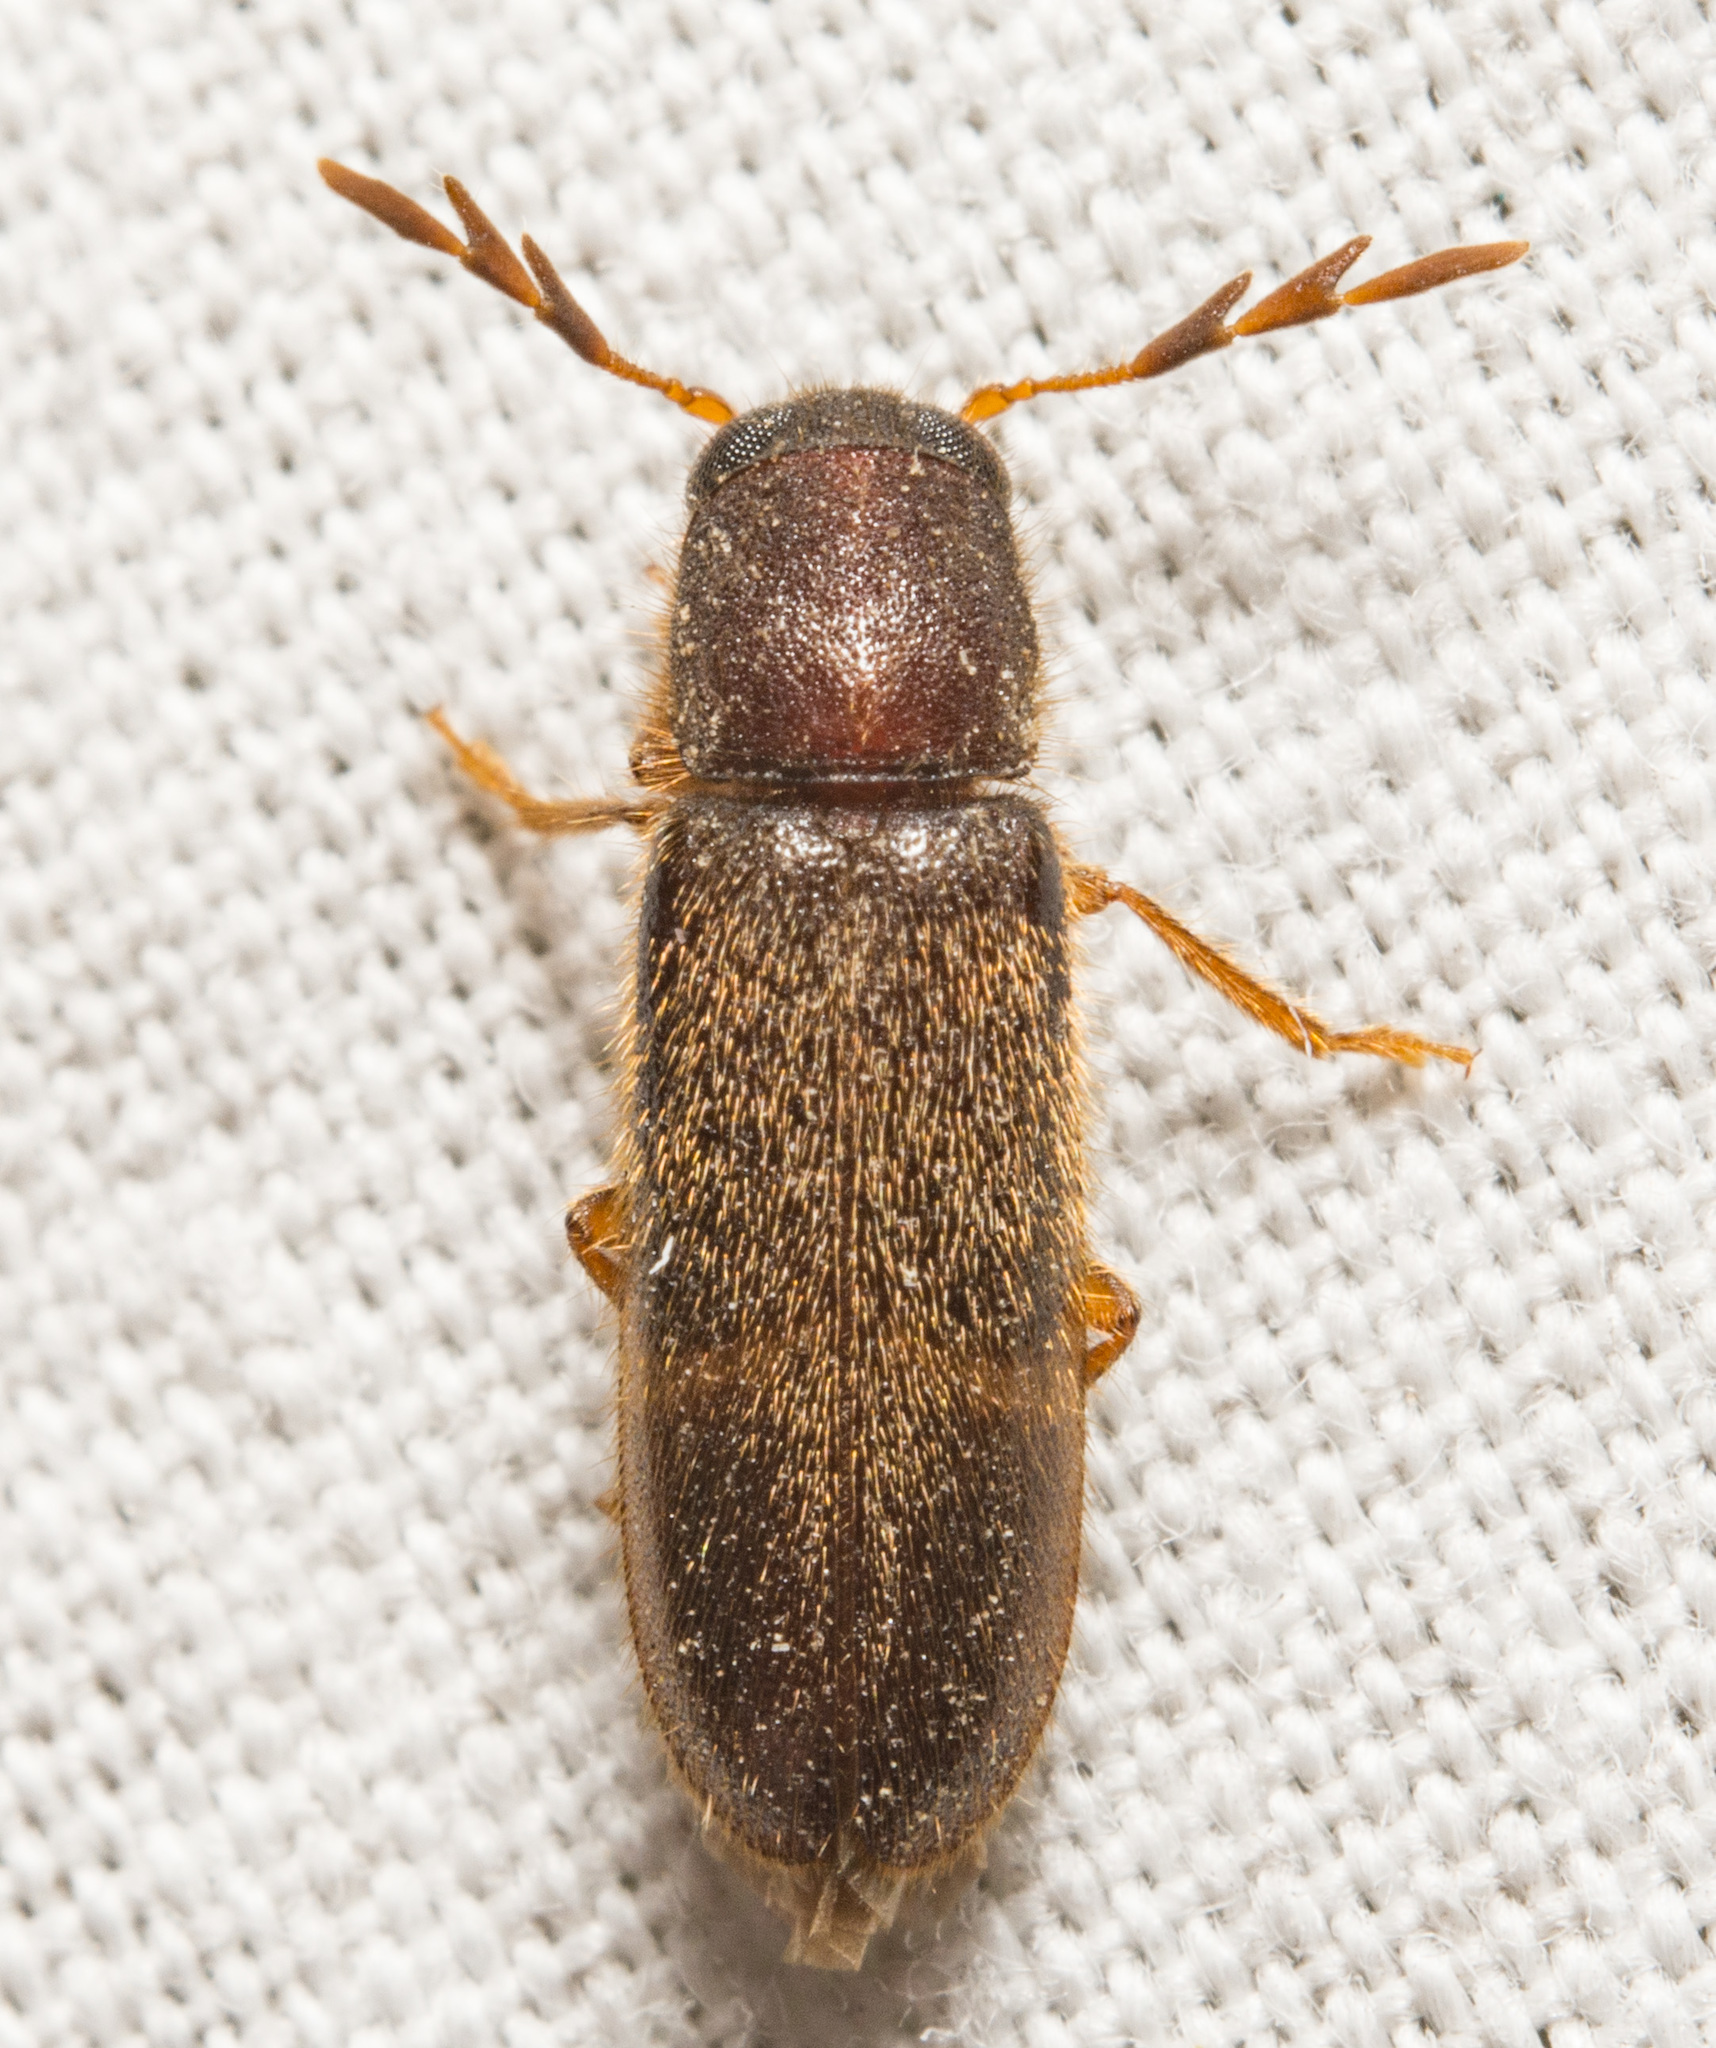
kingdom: Animalia
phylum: Arthropoda
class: Insecta
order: Coleoptera
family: Cleridae
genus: Neorthopleura
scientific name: Neorthopleura texana
